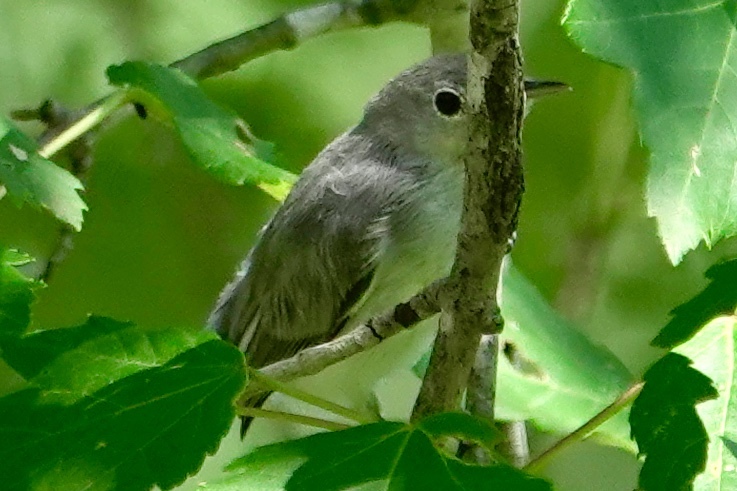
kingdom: Animalia
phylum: Chordata
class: Aves
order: Passeriformes
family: Polioptilidae
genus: Polioptila
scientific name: Polioptila caerulea
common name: Blue-gray gnatcatcher
